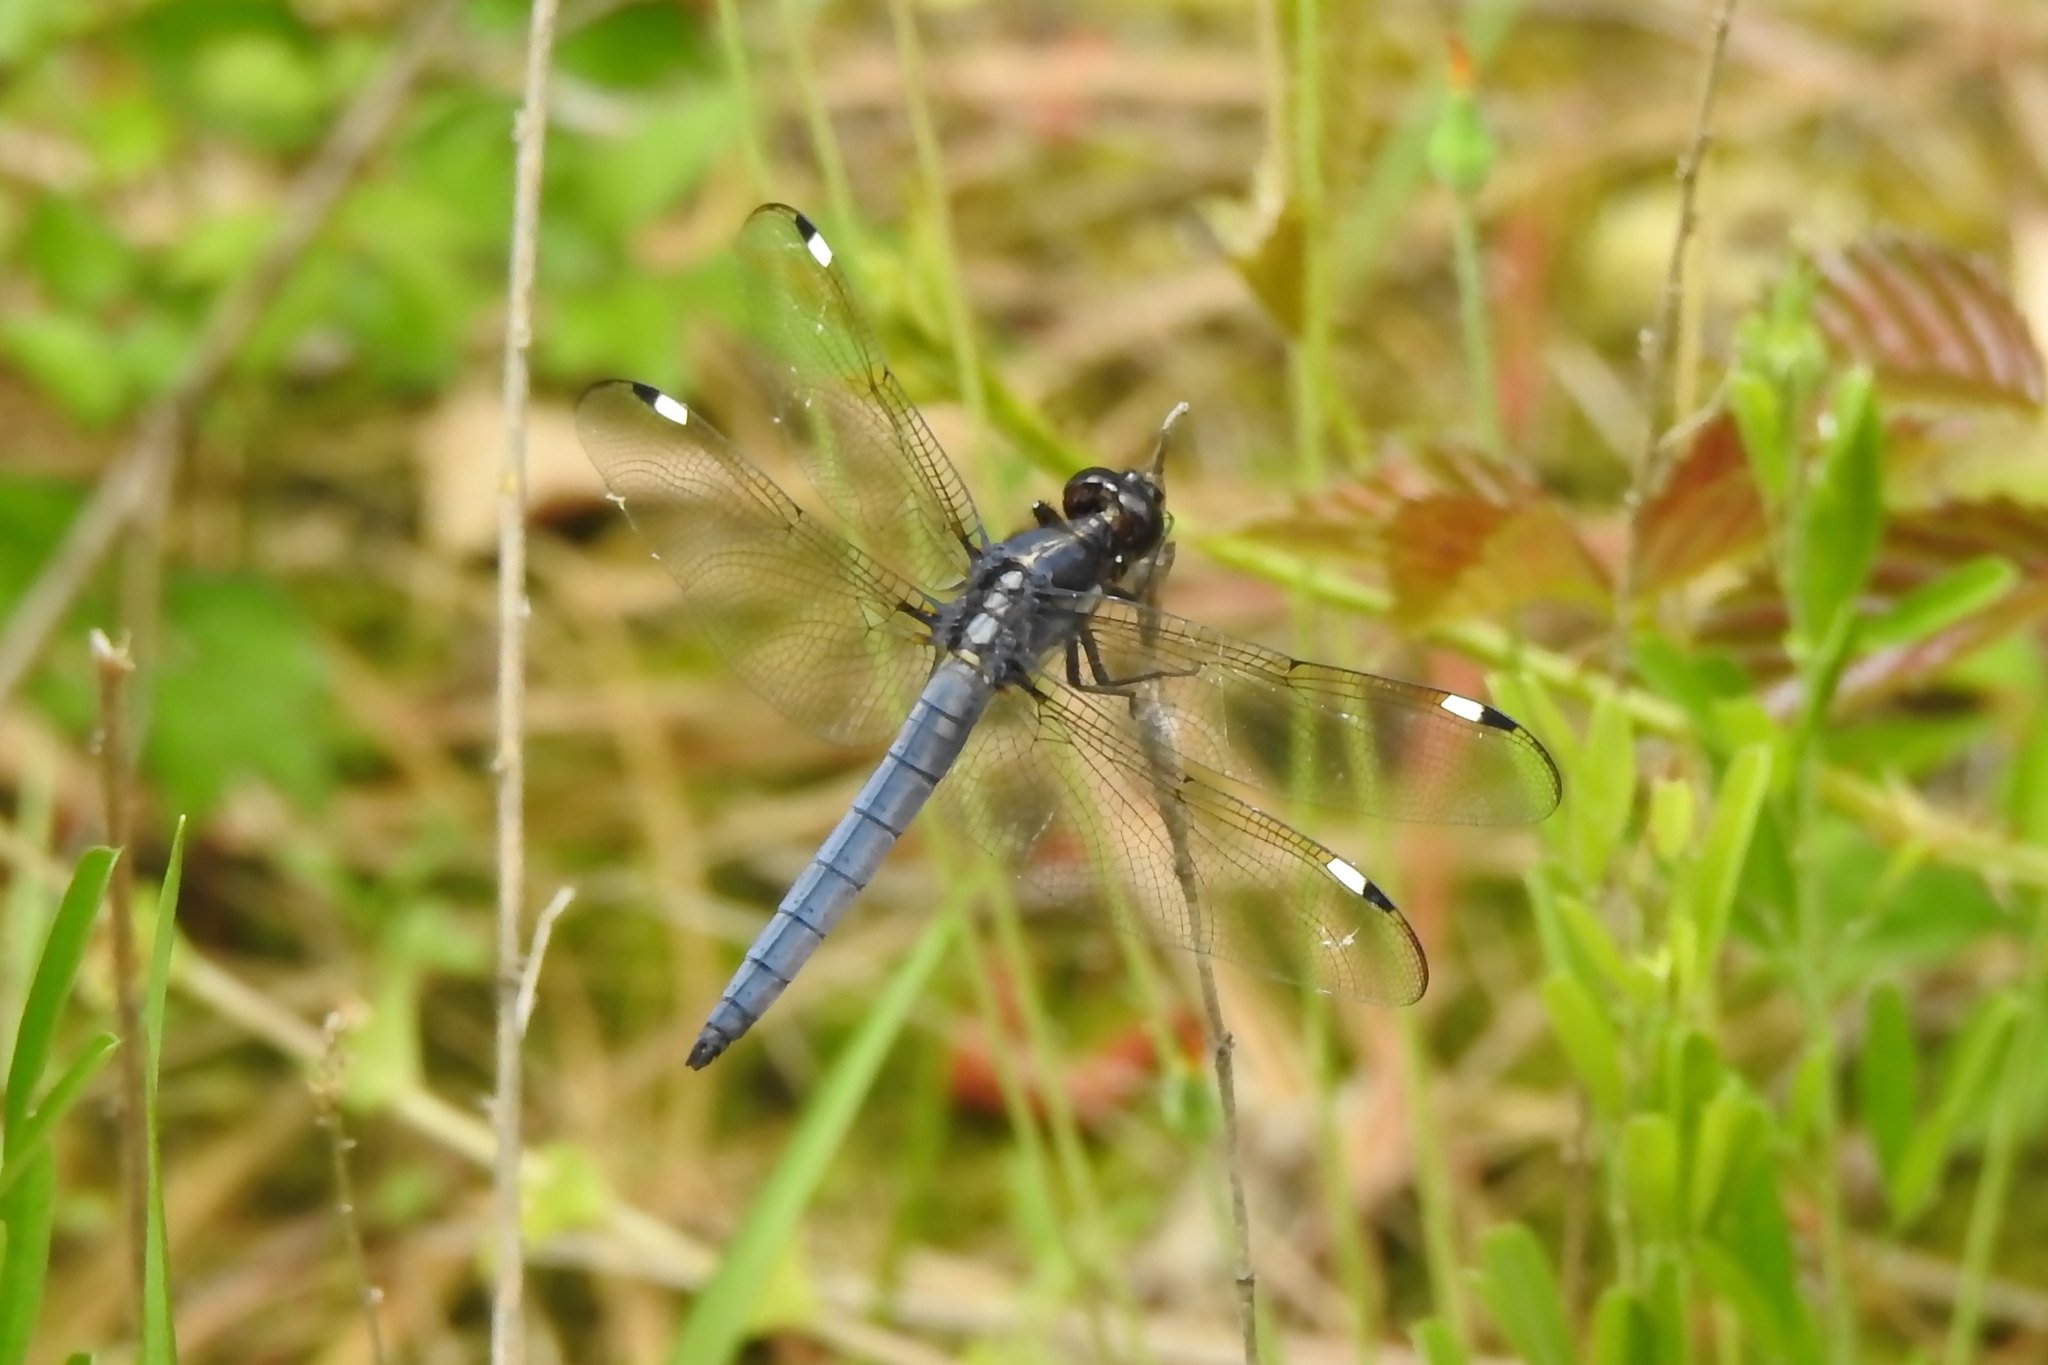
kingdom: Animalia
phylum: Arthropoda
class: Insecta
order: Odonata
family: Libellulidae
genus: Libellula
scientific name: Libellula cyanea
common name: Spangled skimmer
